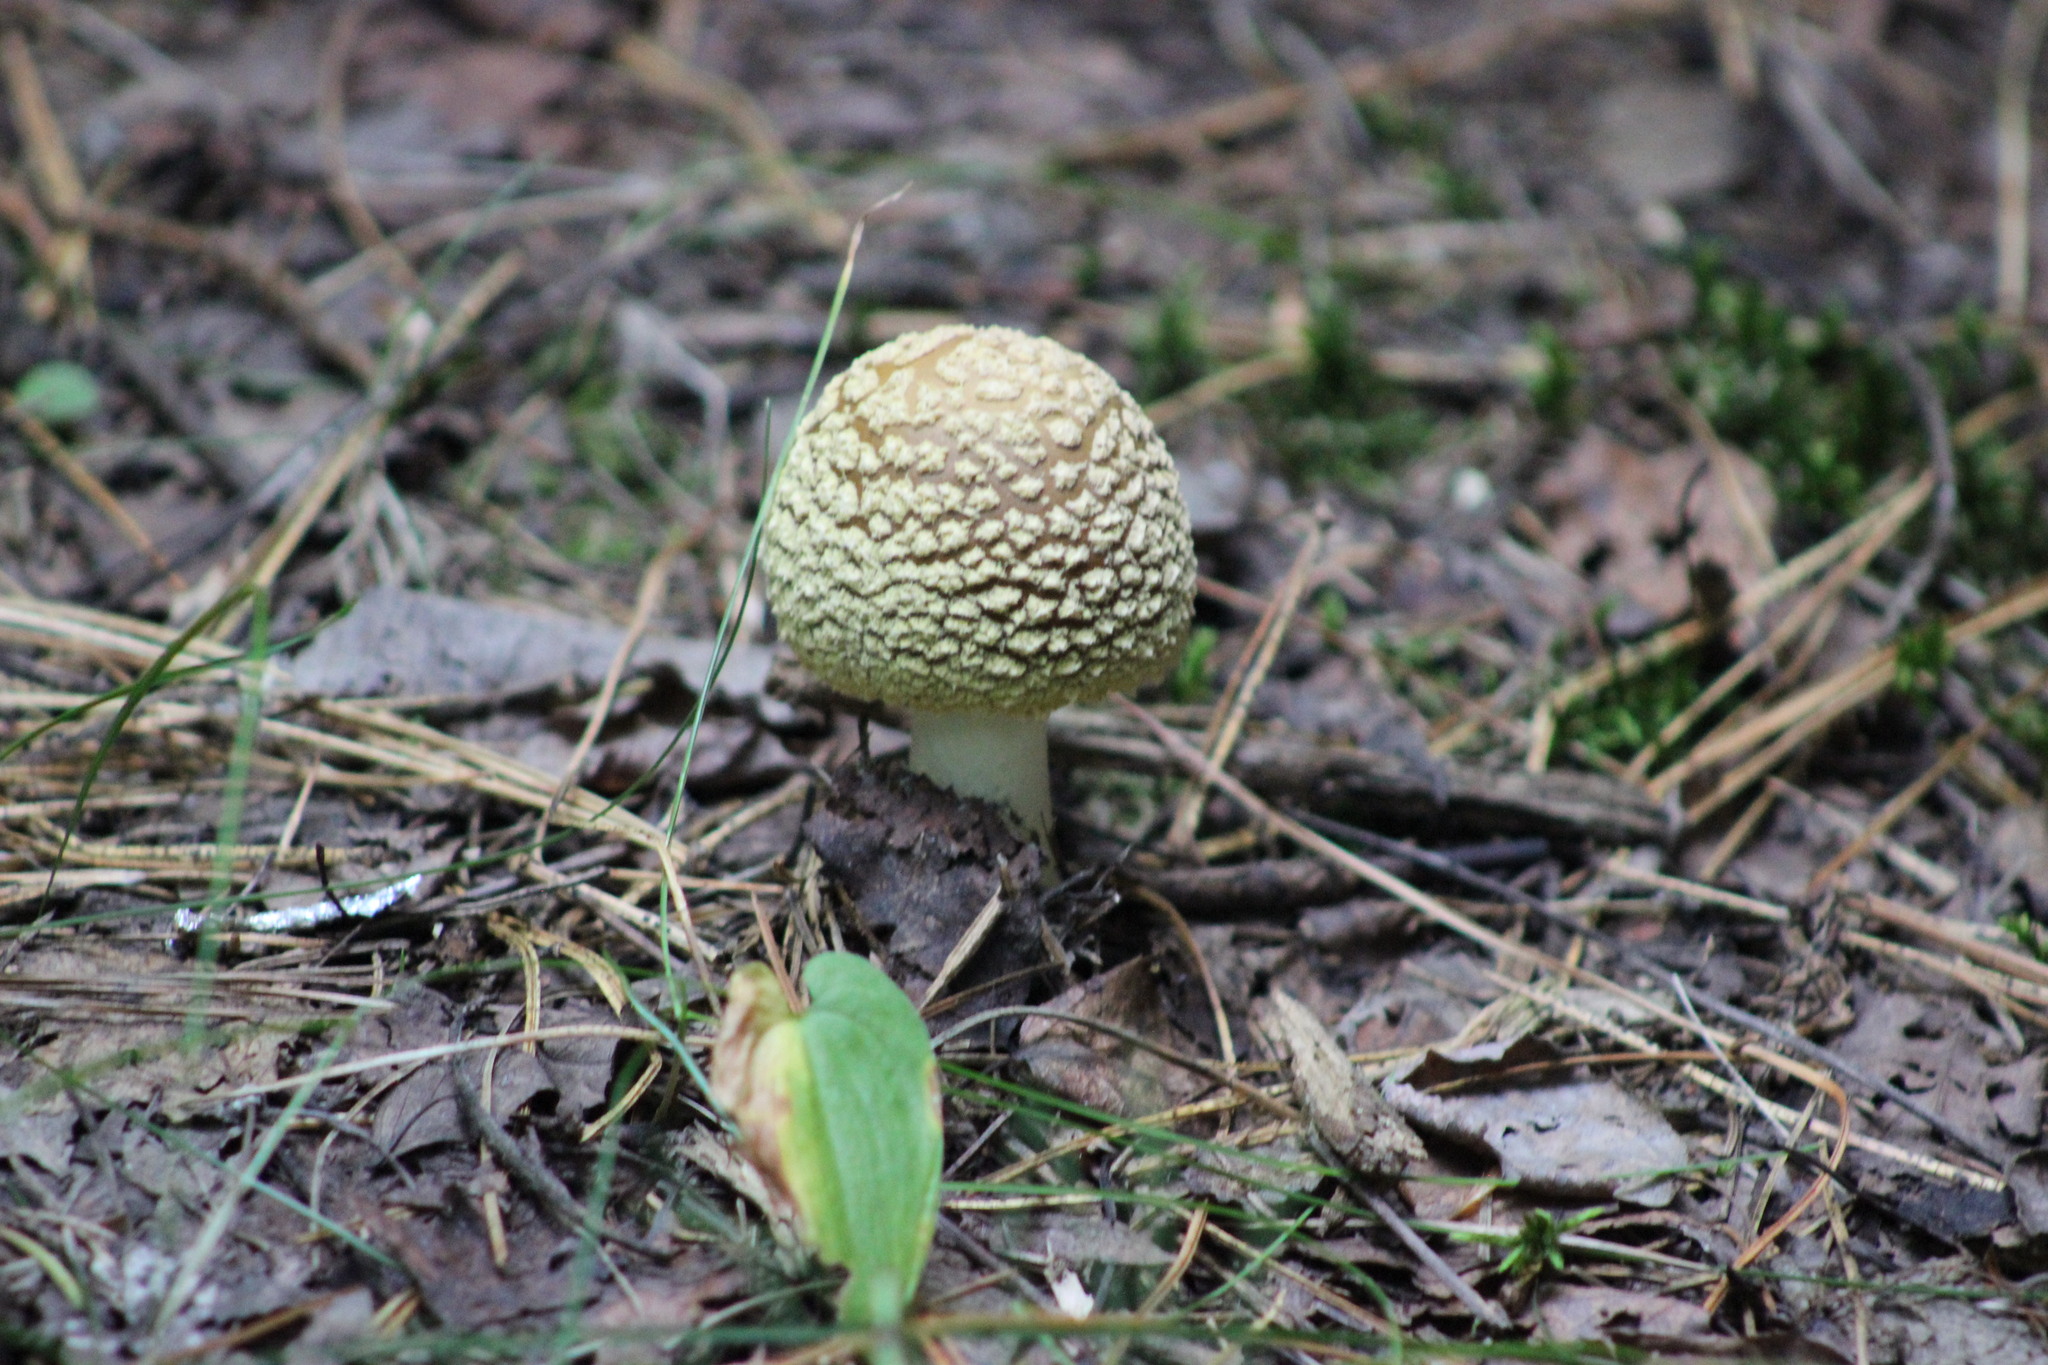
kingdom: Fungi
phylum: Basidiomycota
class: Agaricomycetes
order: Agaricales
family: Amanitaceae
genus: Amanita
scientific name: Amanita regalis
